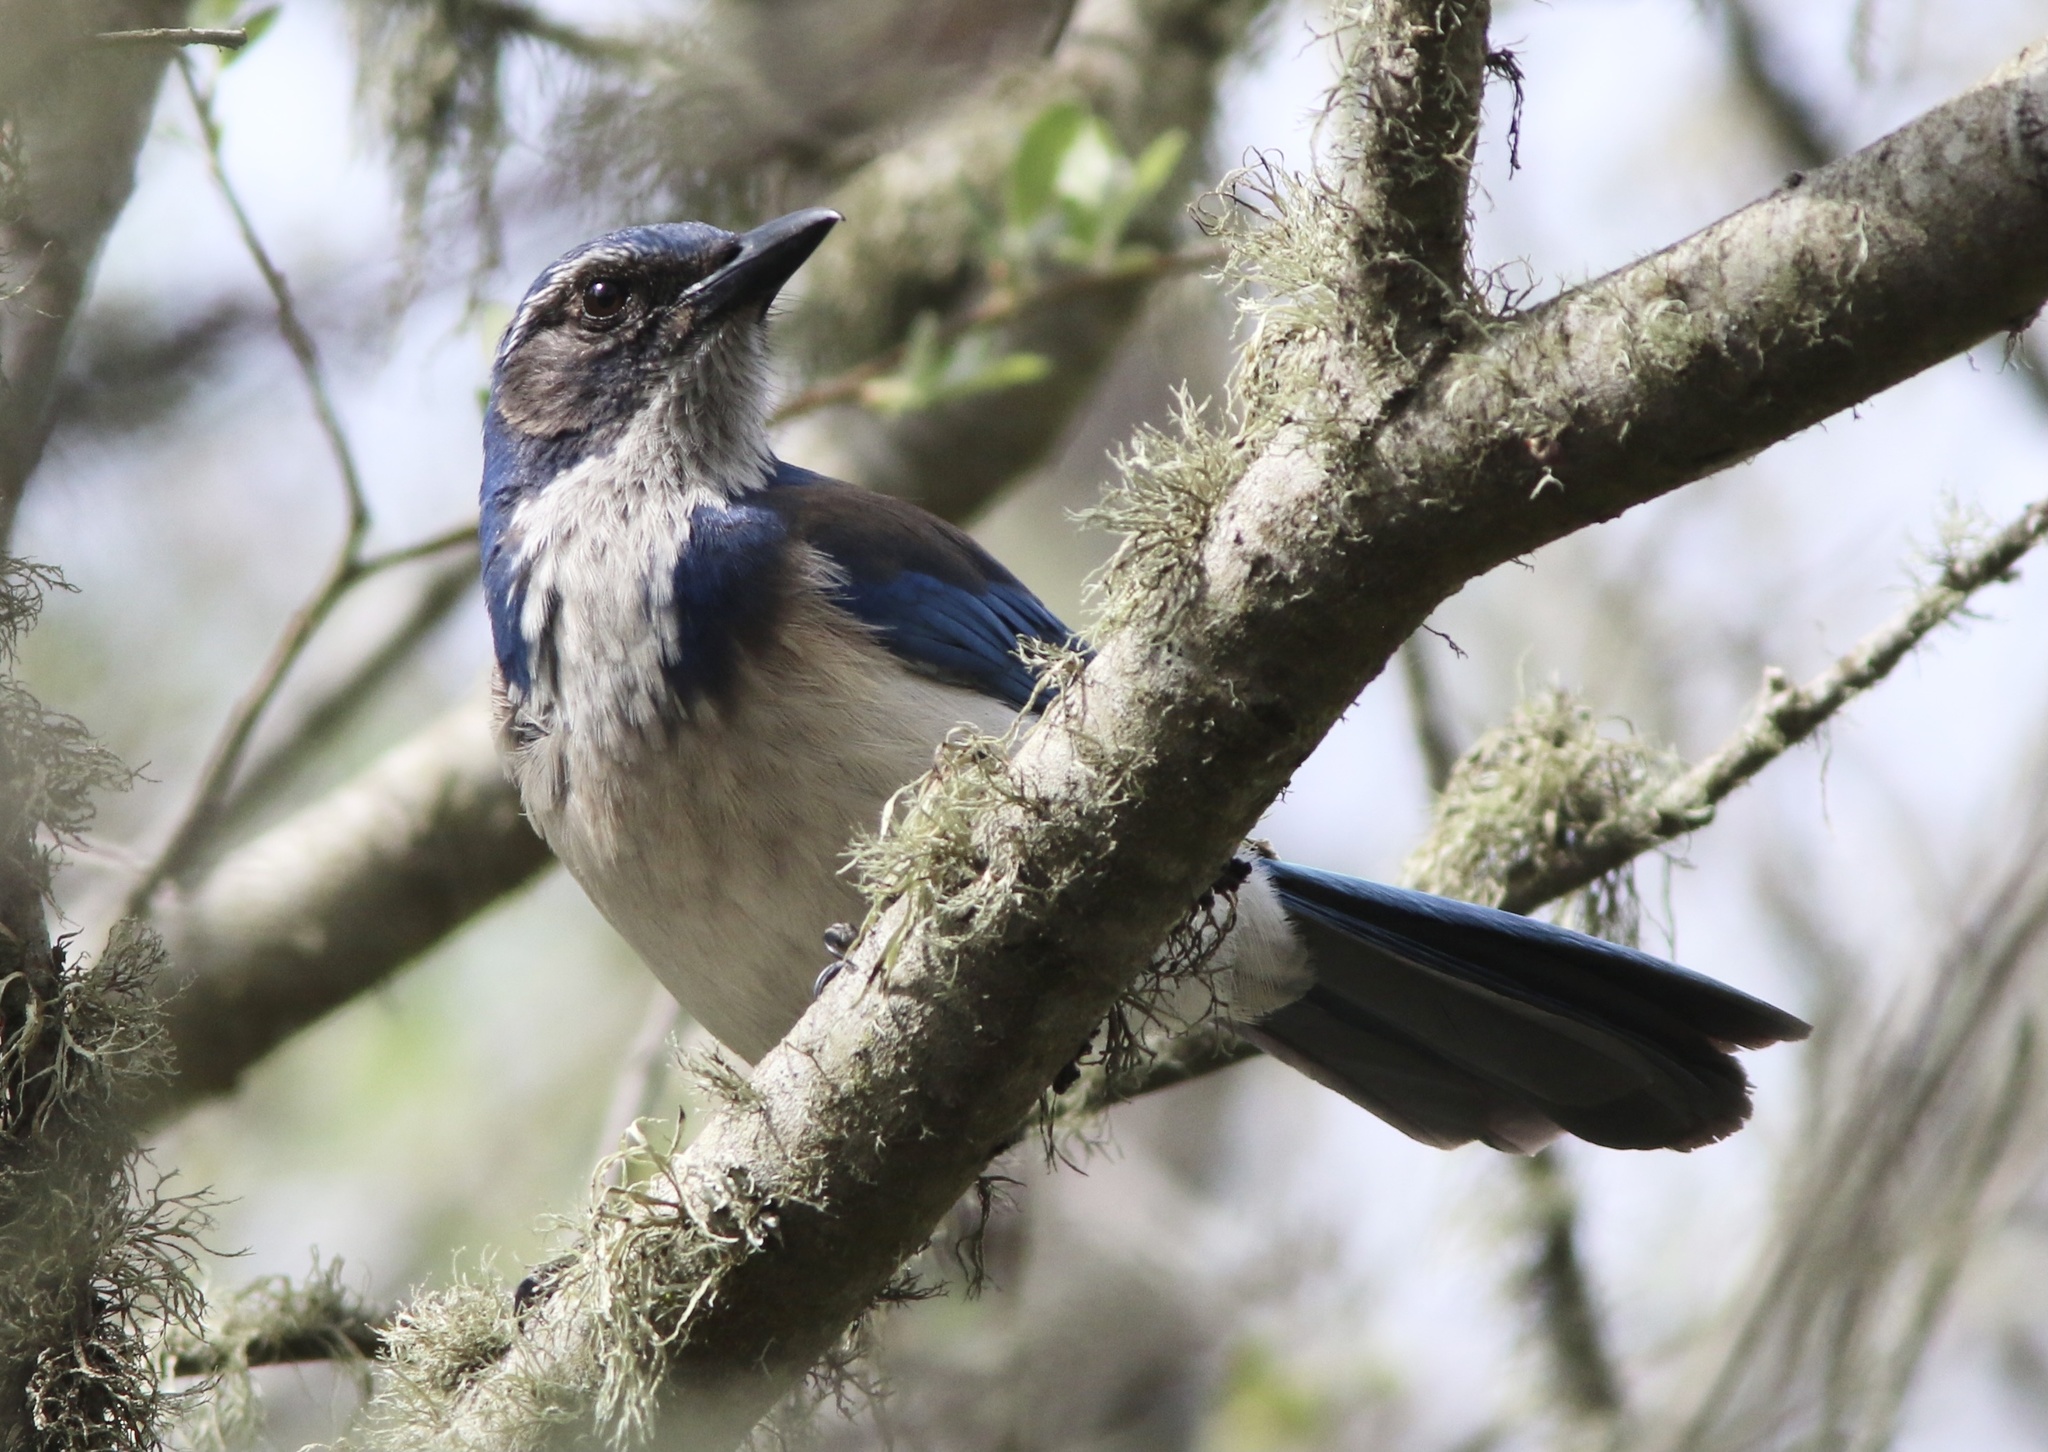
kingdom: Animalia
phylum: Chordata
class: Aves
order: Passeriformes
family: Corvidae
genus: Aphelocoma
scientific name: Aphelocoma californica
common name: California scrub-jay
